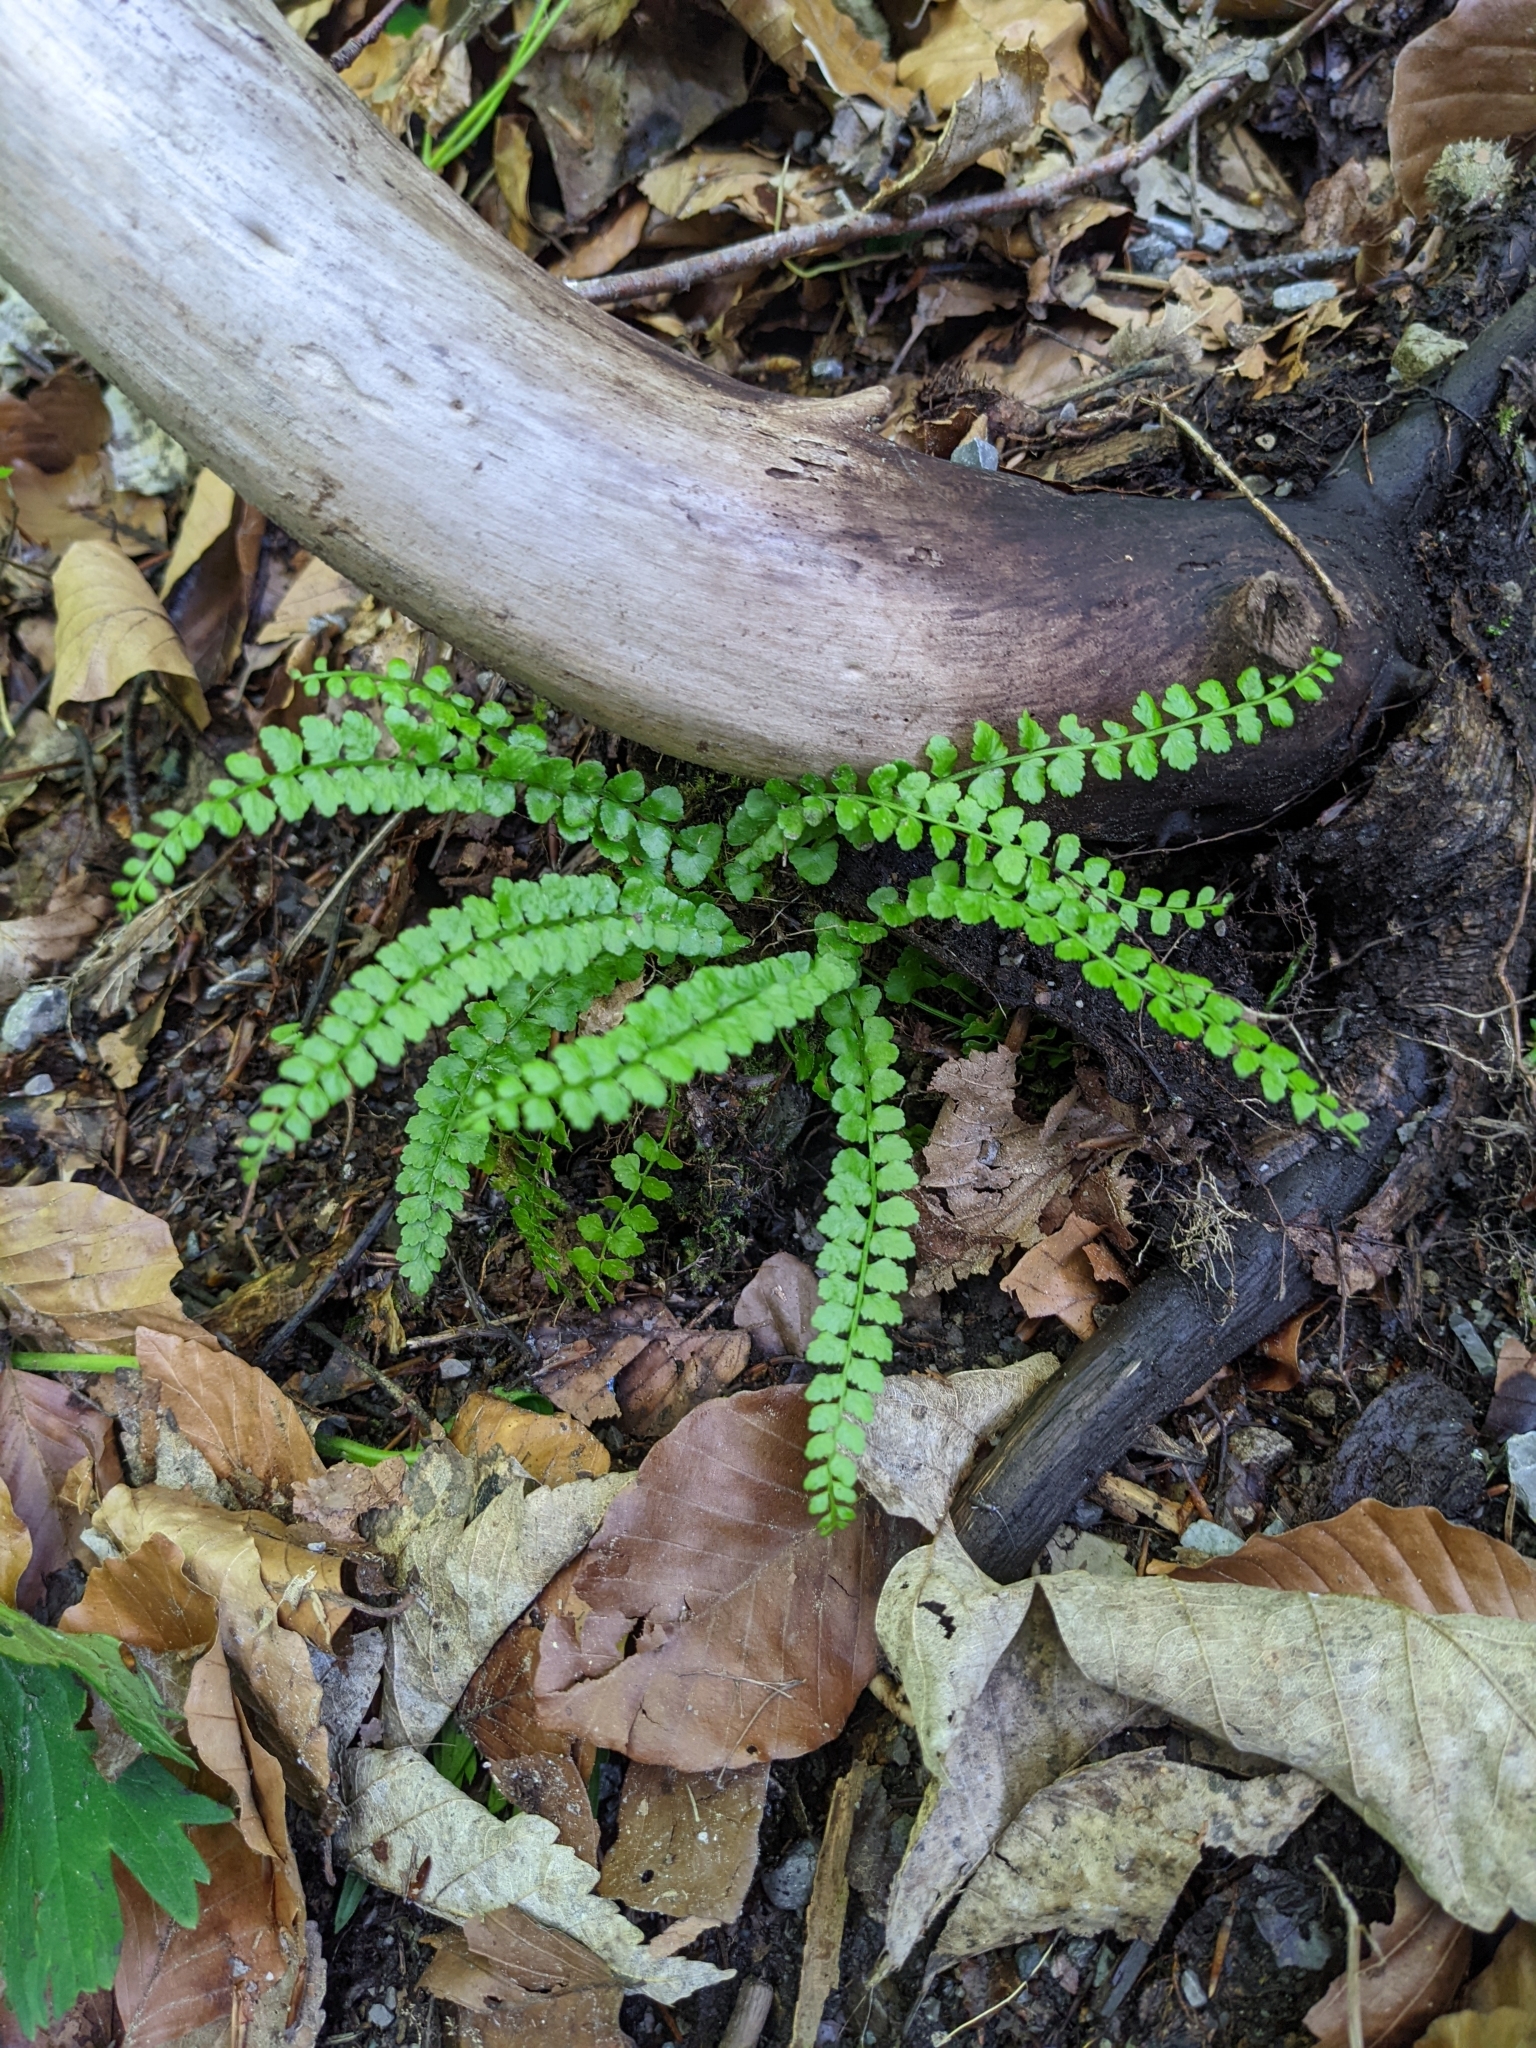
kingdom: Plantae
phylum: Tracheophyta
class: Polypodiopsida
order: Polypodiales
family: Aspleniaceae
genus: Asplenium
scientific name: Asplenium viride
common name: Green spleenwort
